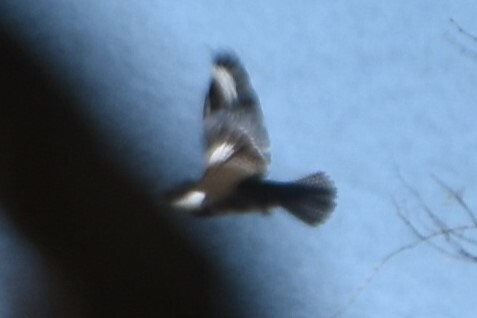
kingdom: Animalia
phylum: Chordata
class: Aves
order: Coraciiformes
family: Alcedinidae
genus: Megaceryle
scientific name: Megaceryle alcyon
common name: Belted kingfisher
